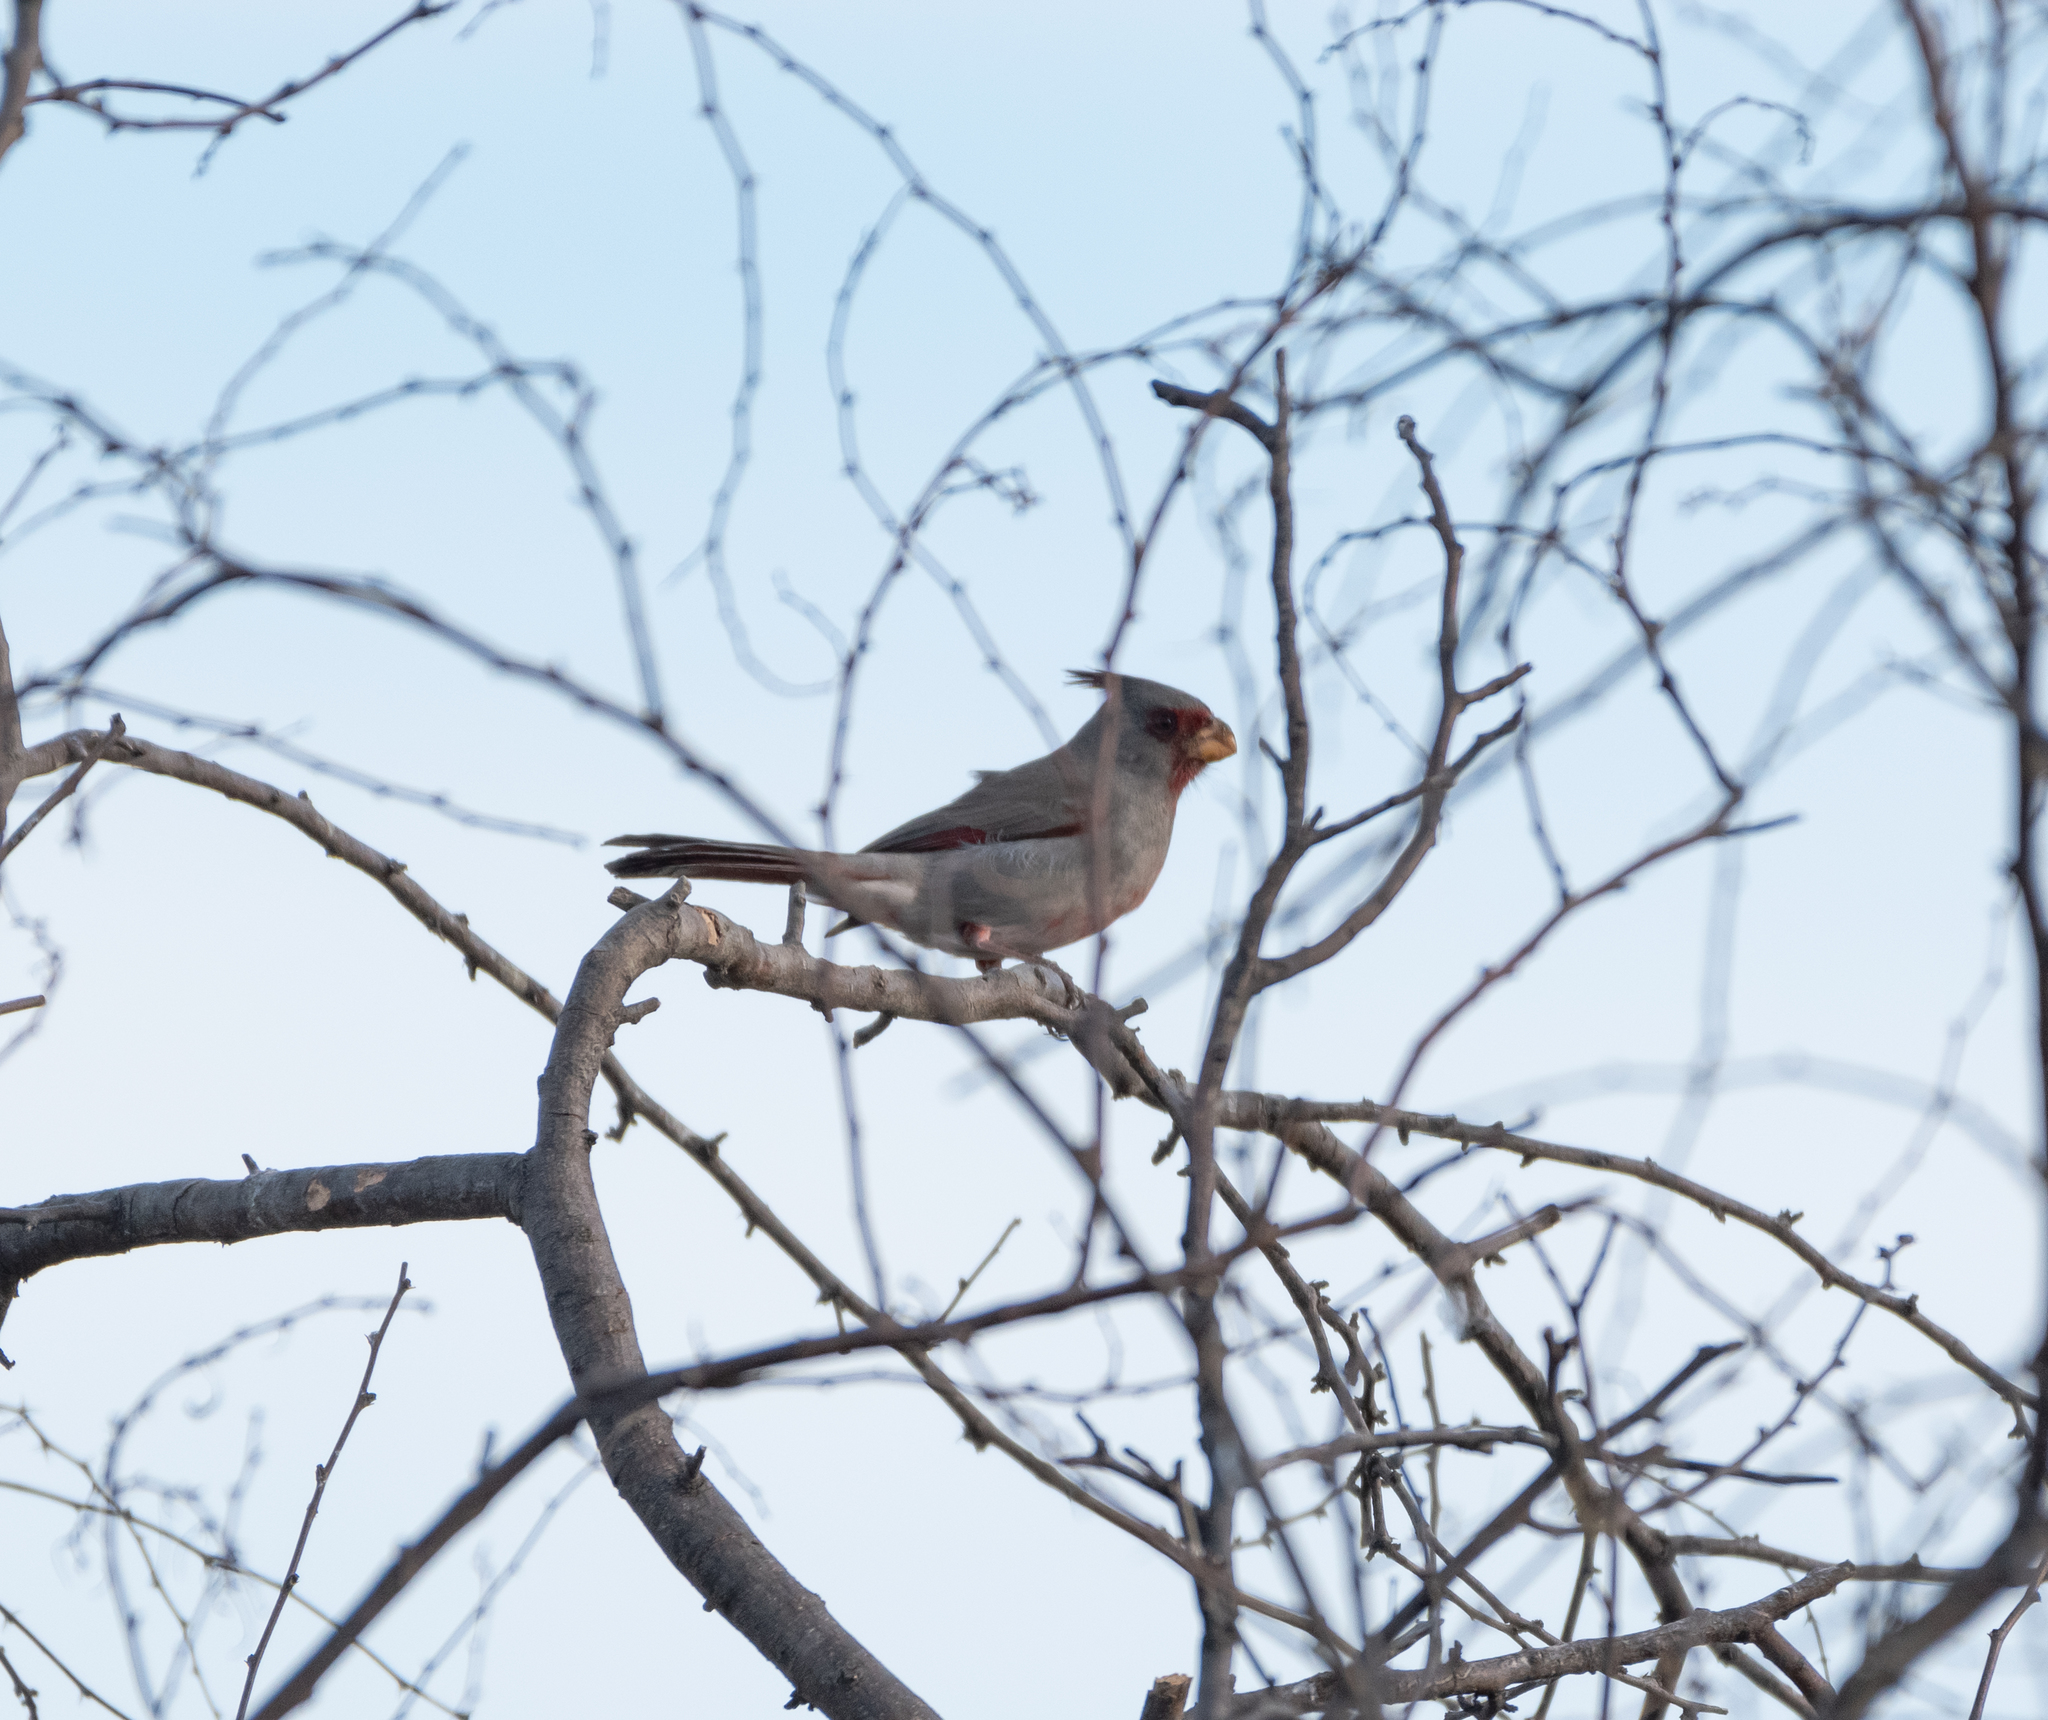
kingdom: Animalia
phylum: Chordata
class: Aves
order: Passeriformes
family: Cardinalidae
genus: Cardinalis
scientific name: Cardinalis sinuatus
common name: Pyrrhuloxia
